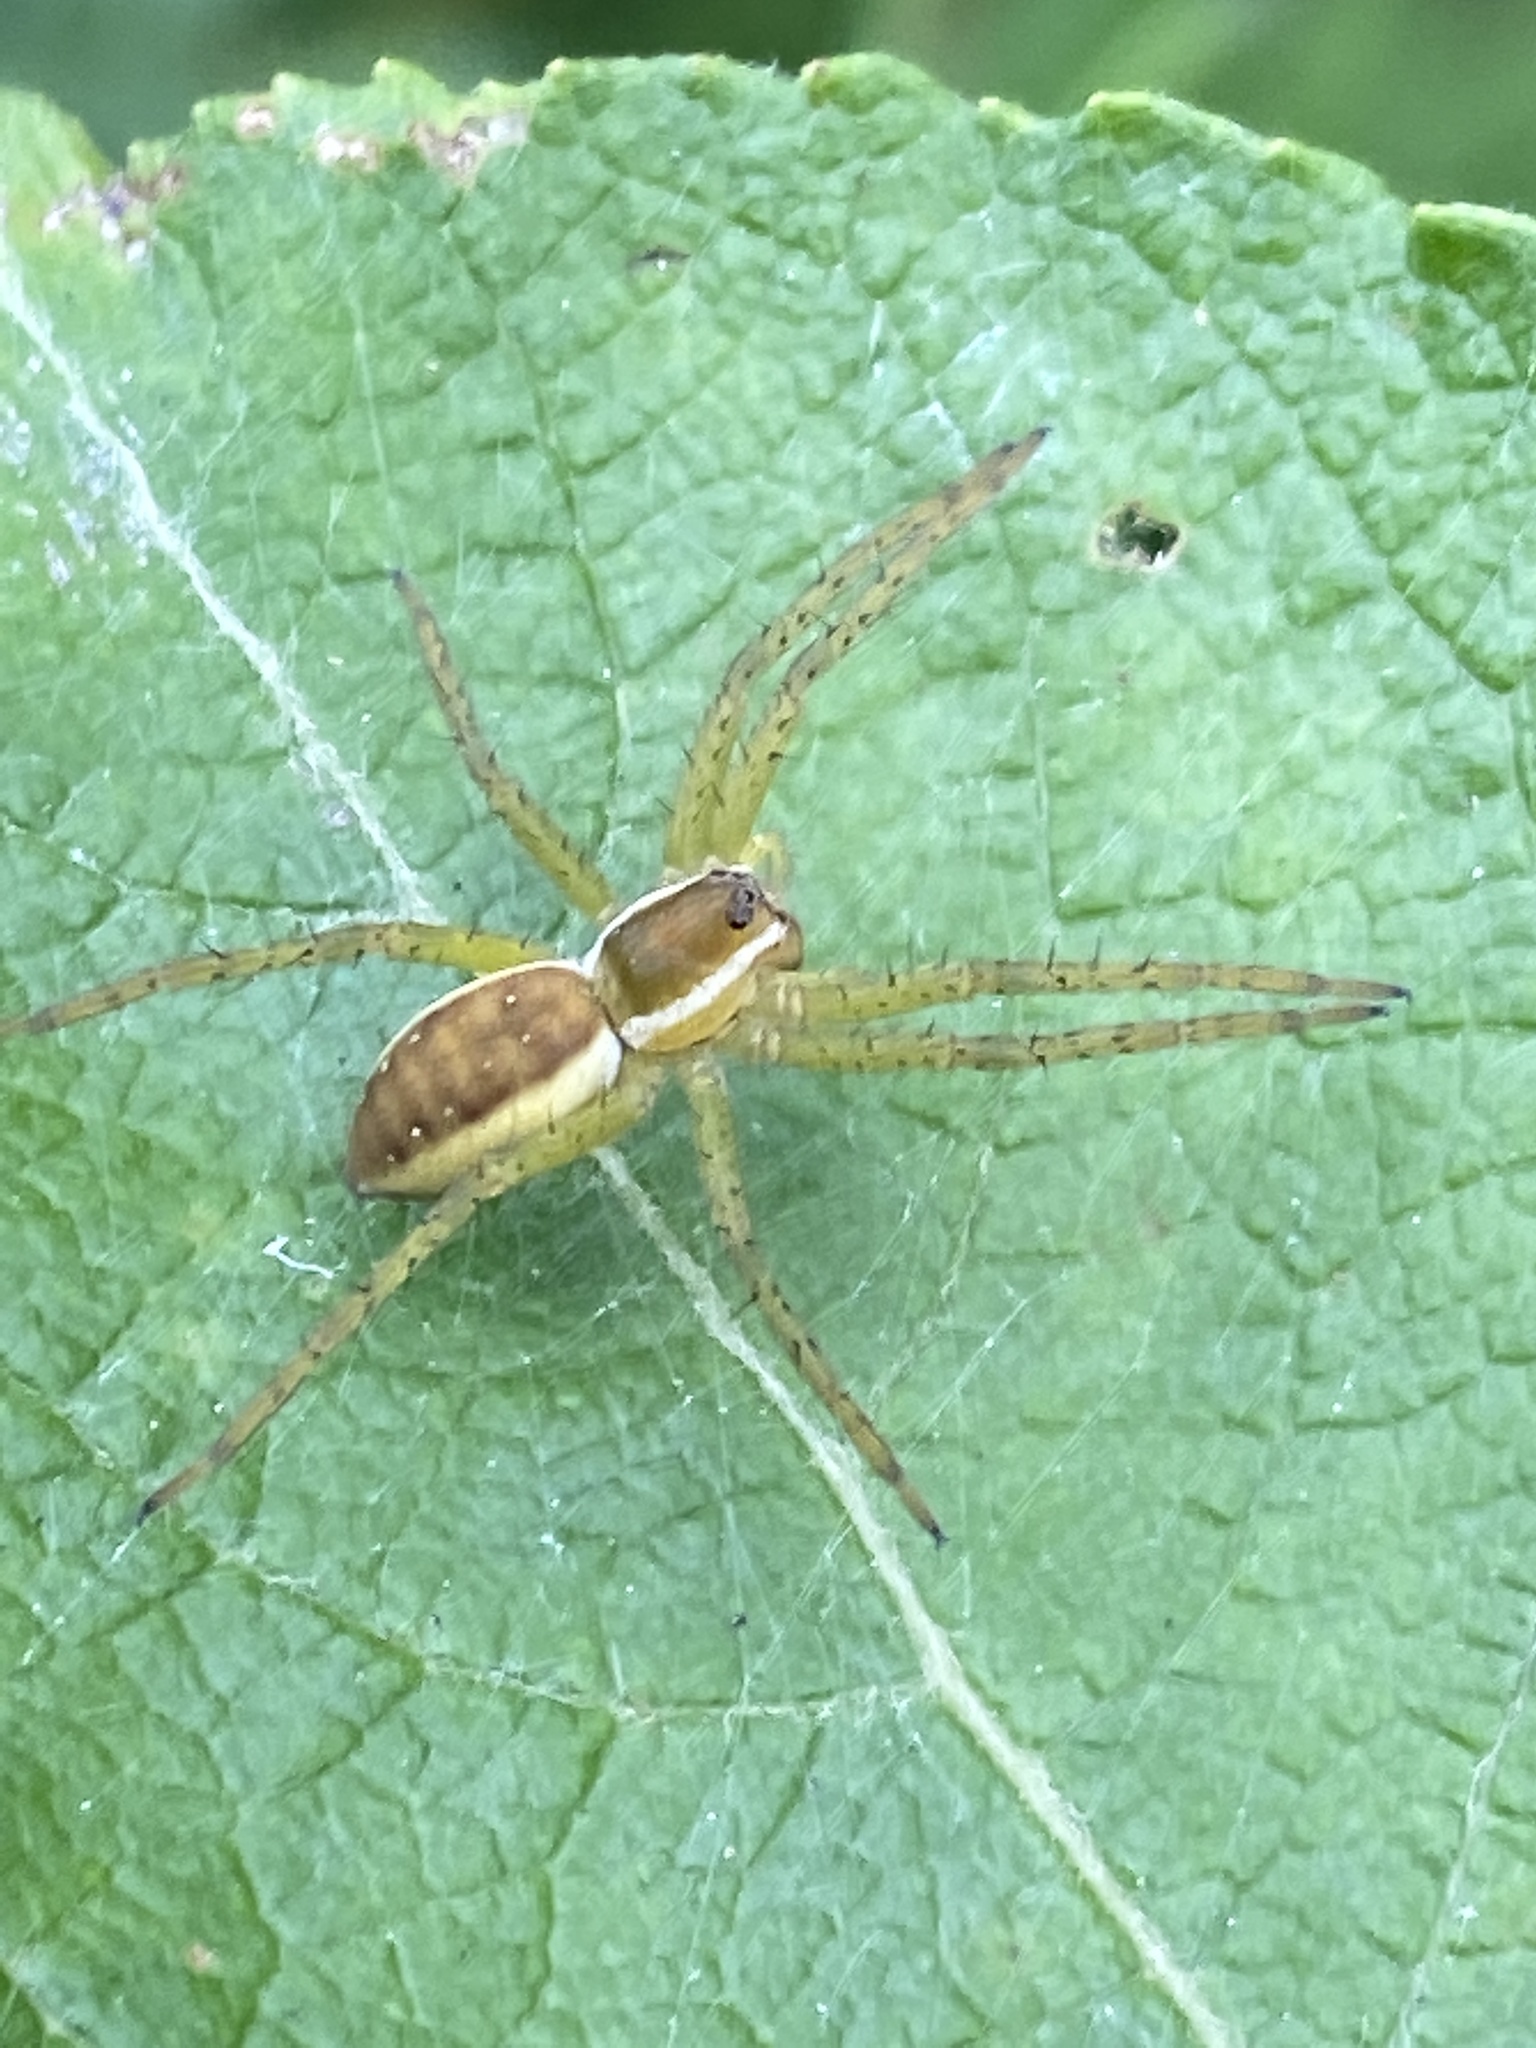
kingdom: Animalia
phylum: Arthropoda
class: Arachnida
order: Araneae
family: Pisauridae
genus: Dolomedes
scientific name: Dolomedes fimbriatus
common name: Raft spider
